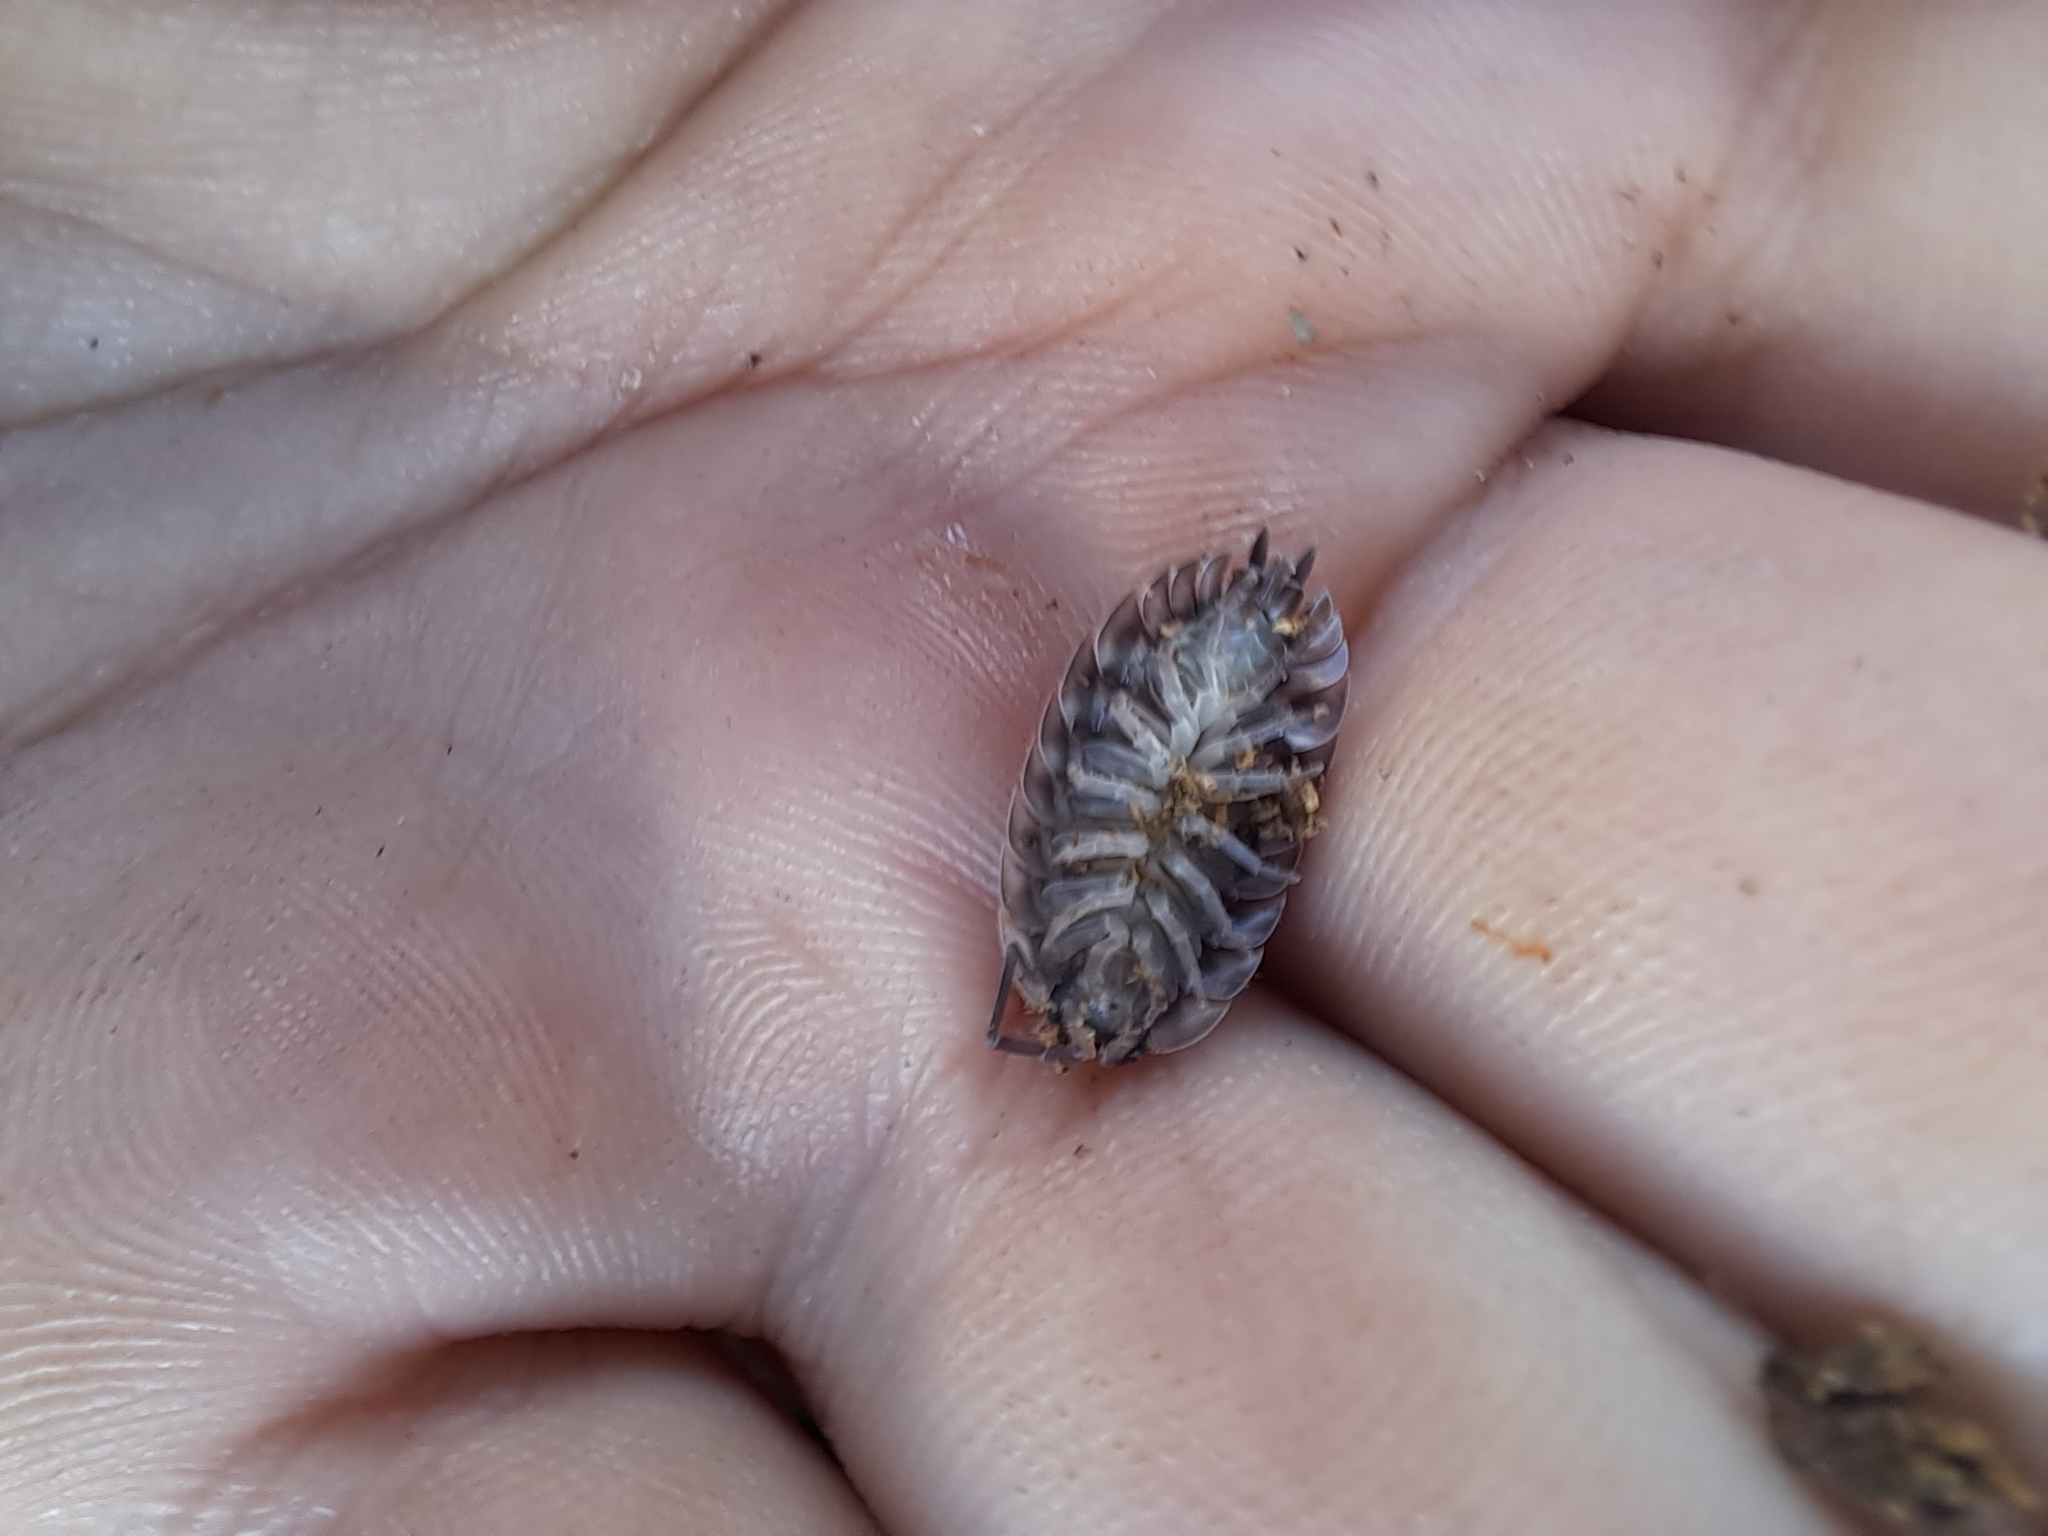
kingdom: Animalia
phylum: Arthropoda
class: Malacostraca
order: Isopoda
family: Oniscidae
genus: Oniscus
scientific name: Oniscus asellus
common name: Common shiny woodlouse
